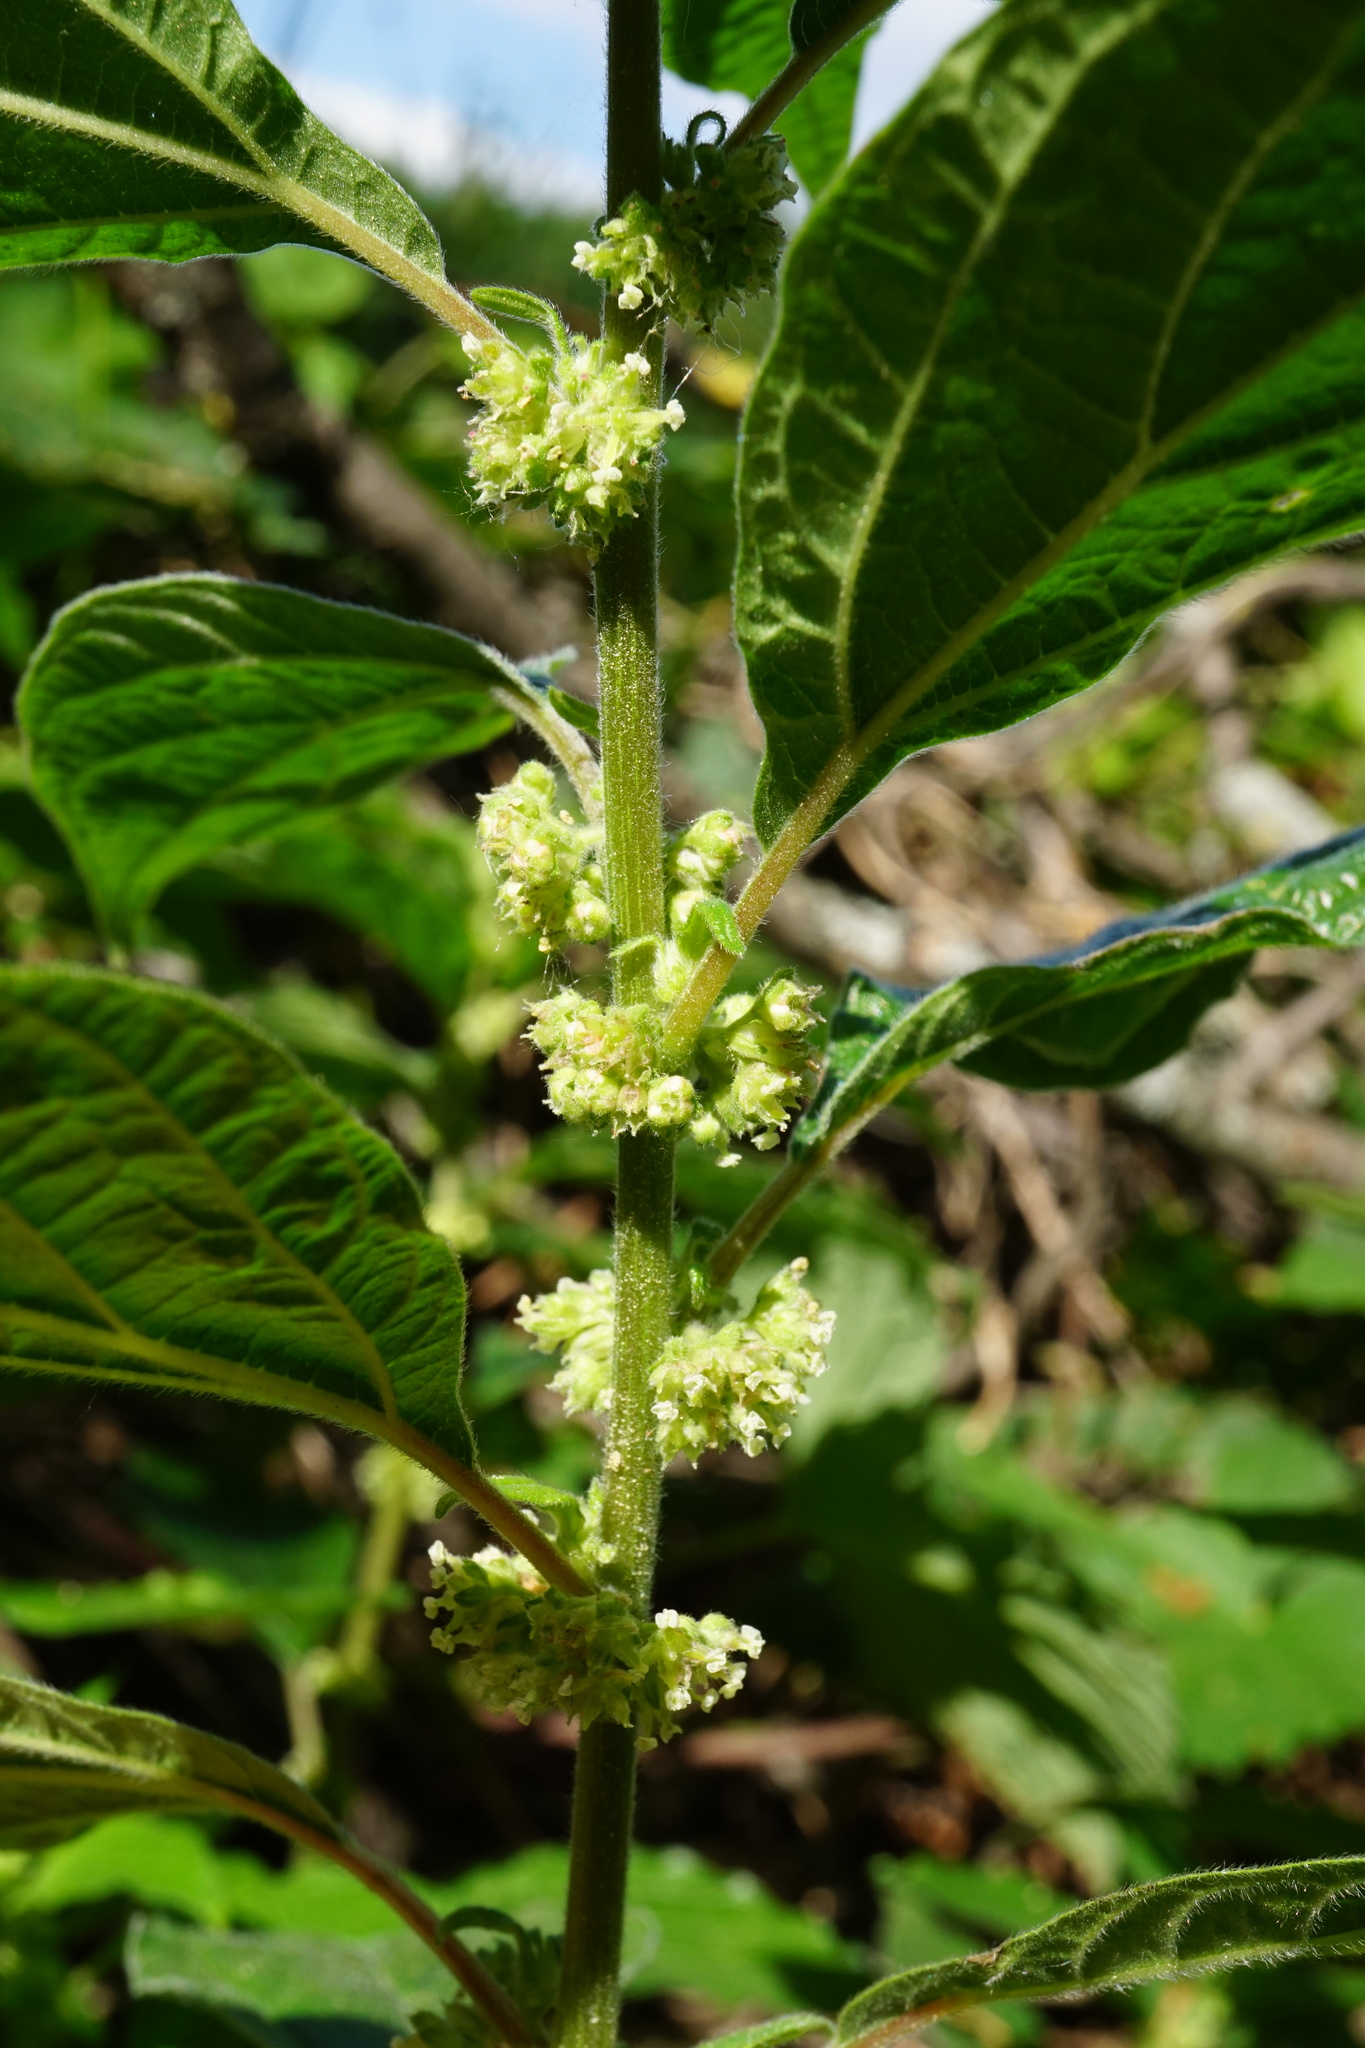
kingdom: Plantae
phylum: Tracheophyta
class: Magnoliopsida
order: Rosales
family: Urticaceae
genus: Parietaria
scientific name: Parietaria officinalis
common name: Eastern pellitory-of-the-wall
